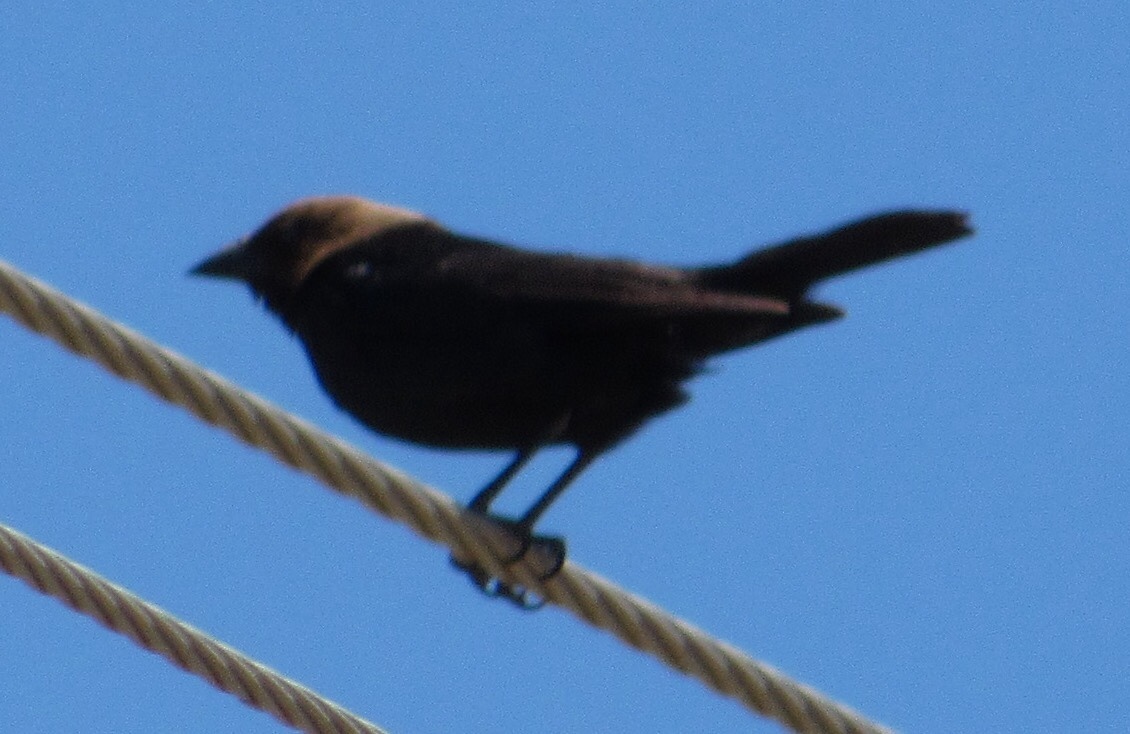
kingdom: Animalia
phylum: Chordata
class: Aves
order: Passeriformes
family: Icteridae
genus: Molothrus
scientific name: Molothrus ater
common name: Brown-headed cowbird
